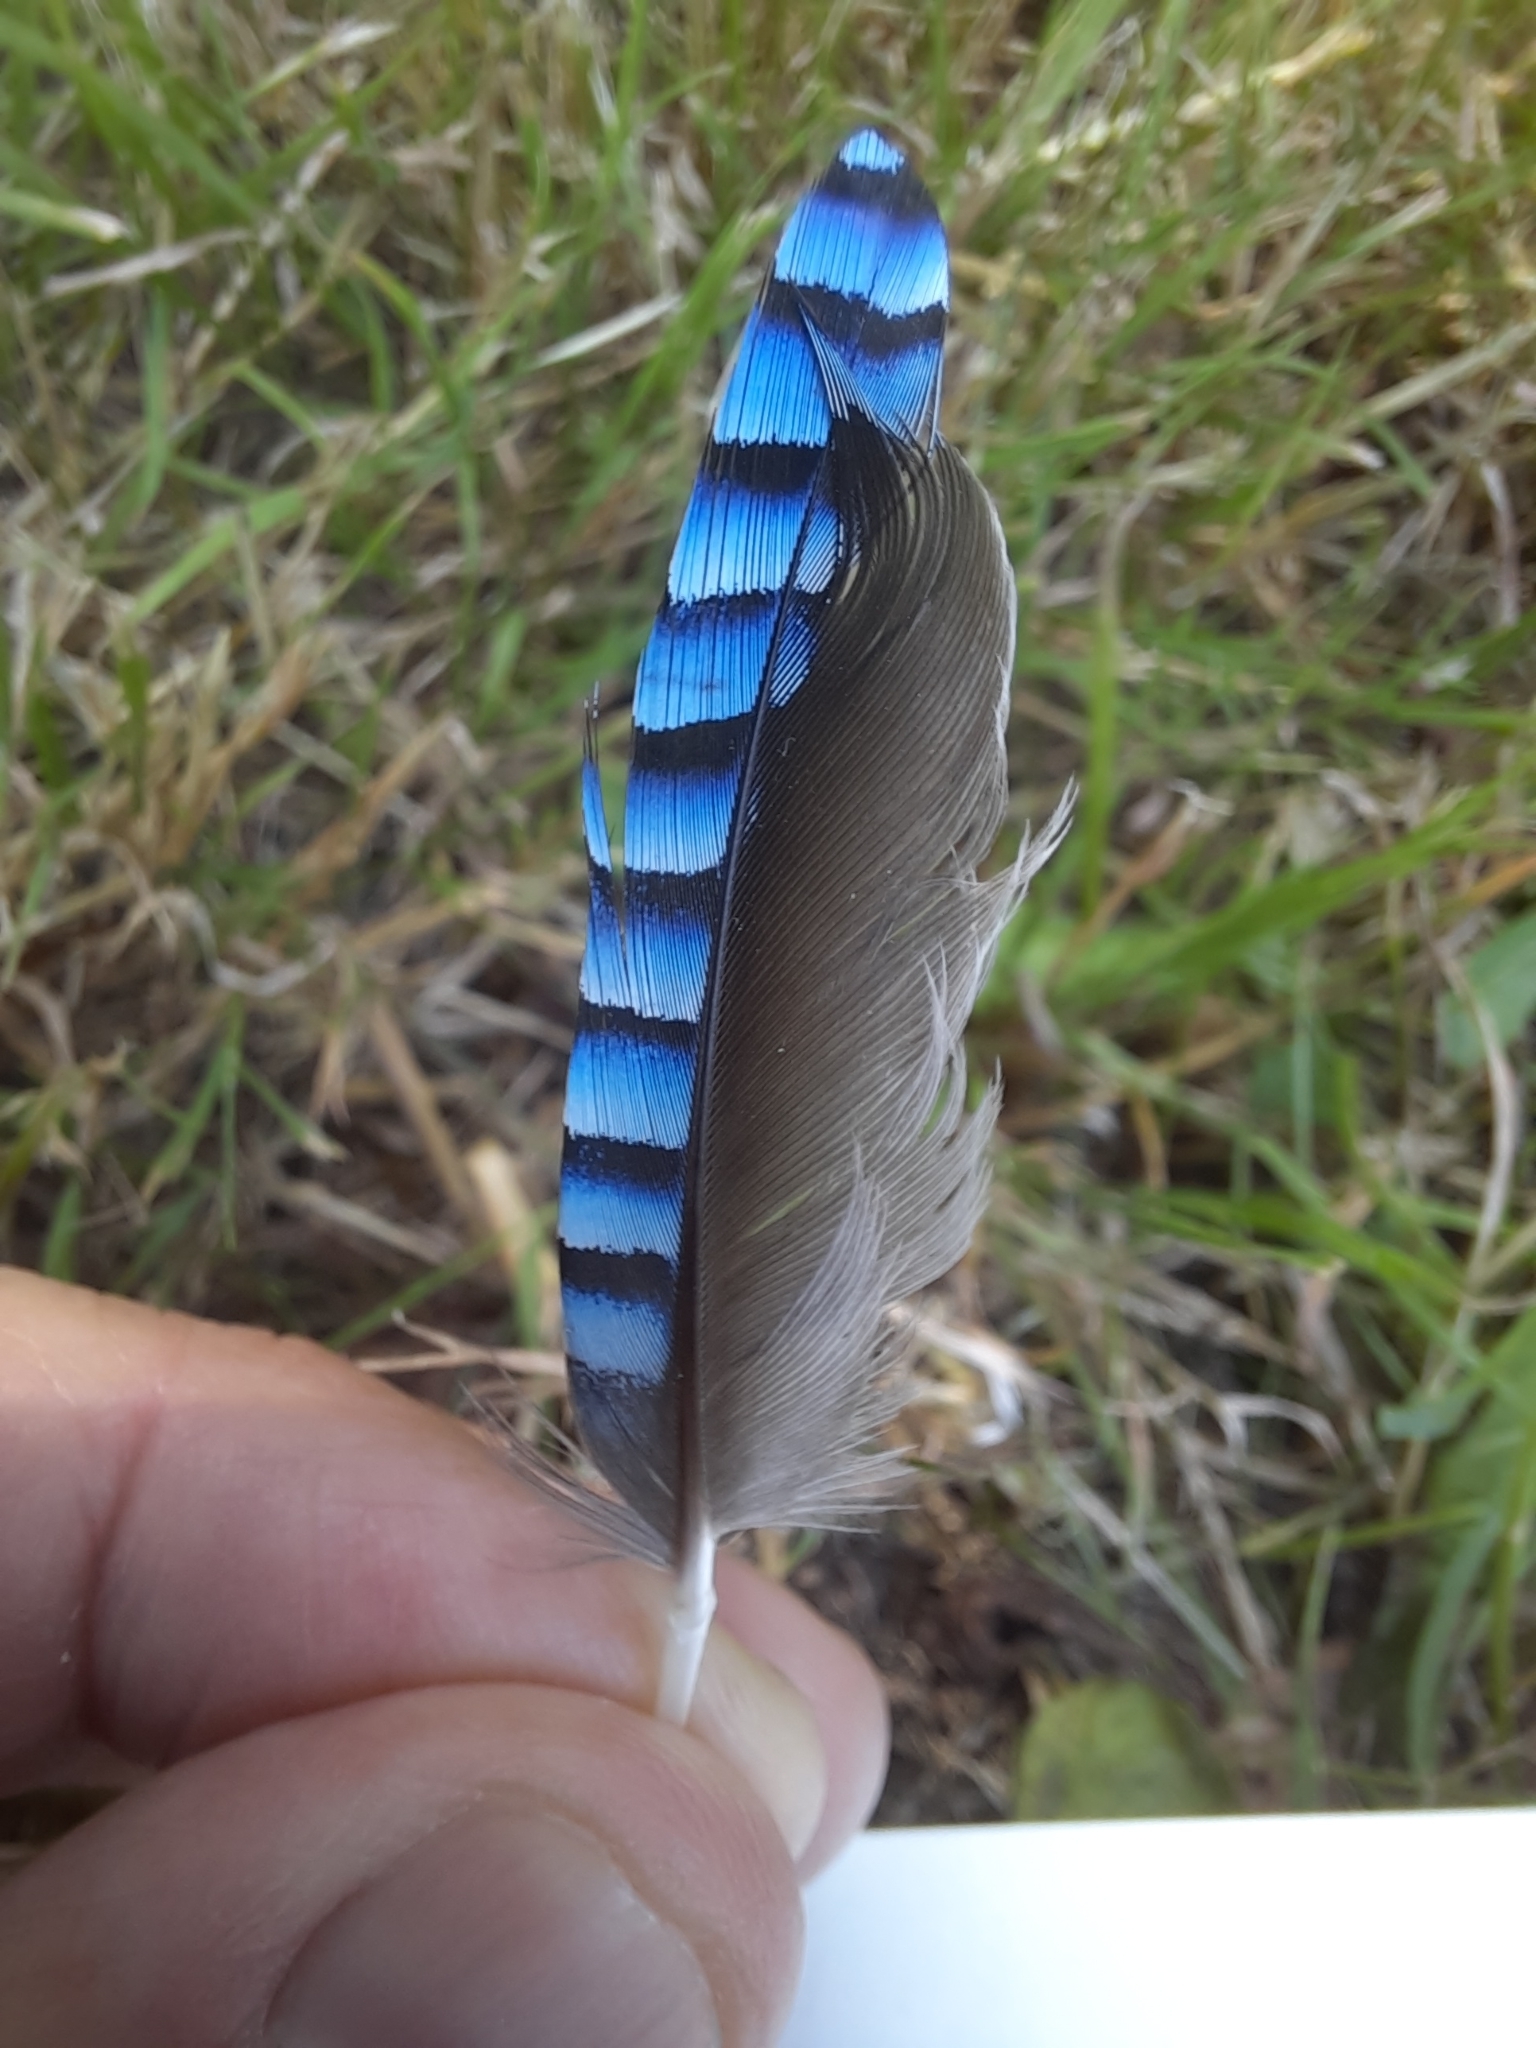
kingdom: Animalia
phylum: Chordata
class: Aves
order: Passeriformes
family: Corvidae
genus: Garrulus
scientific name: Garrulus glandarius
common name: Eurasian jay
